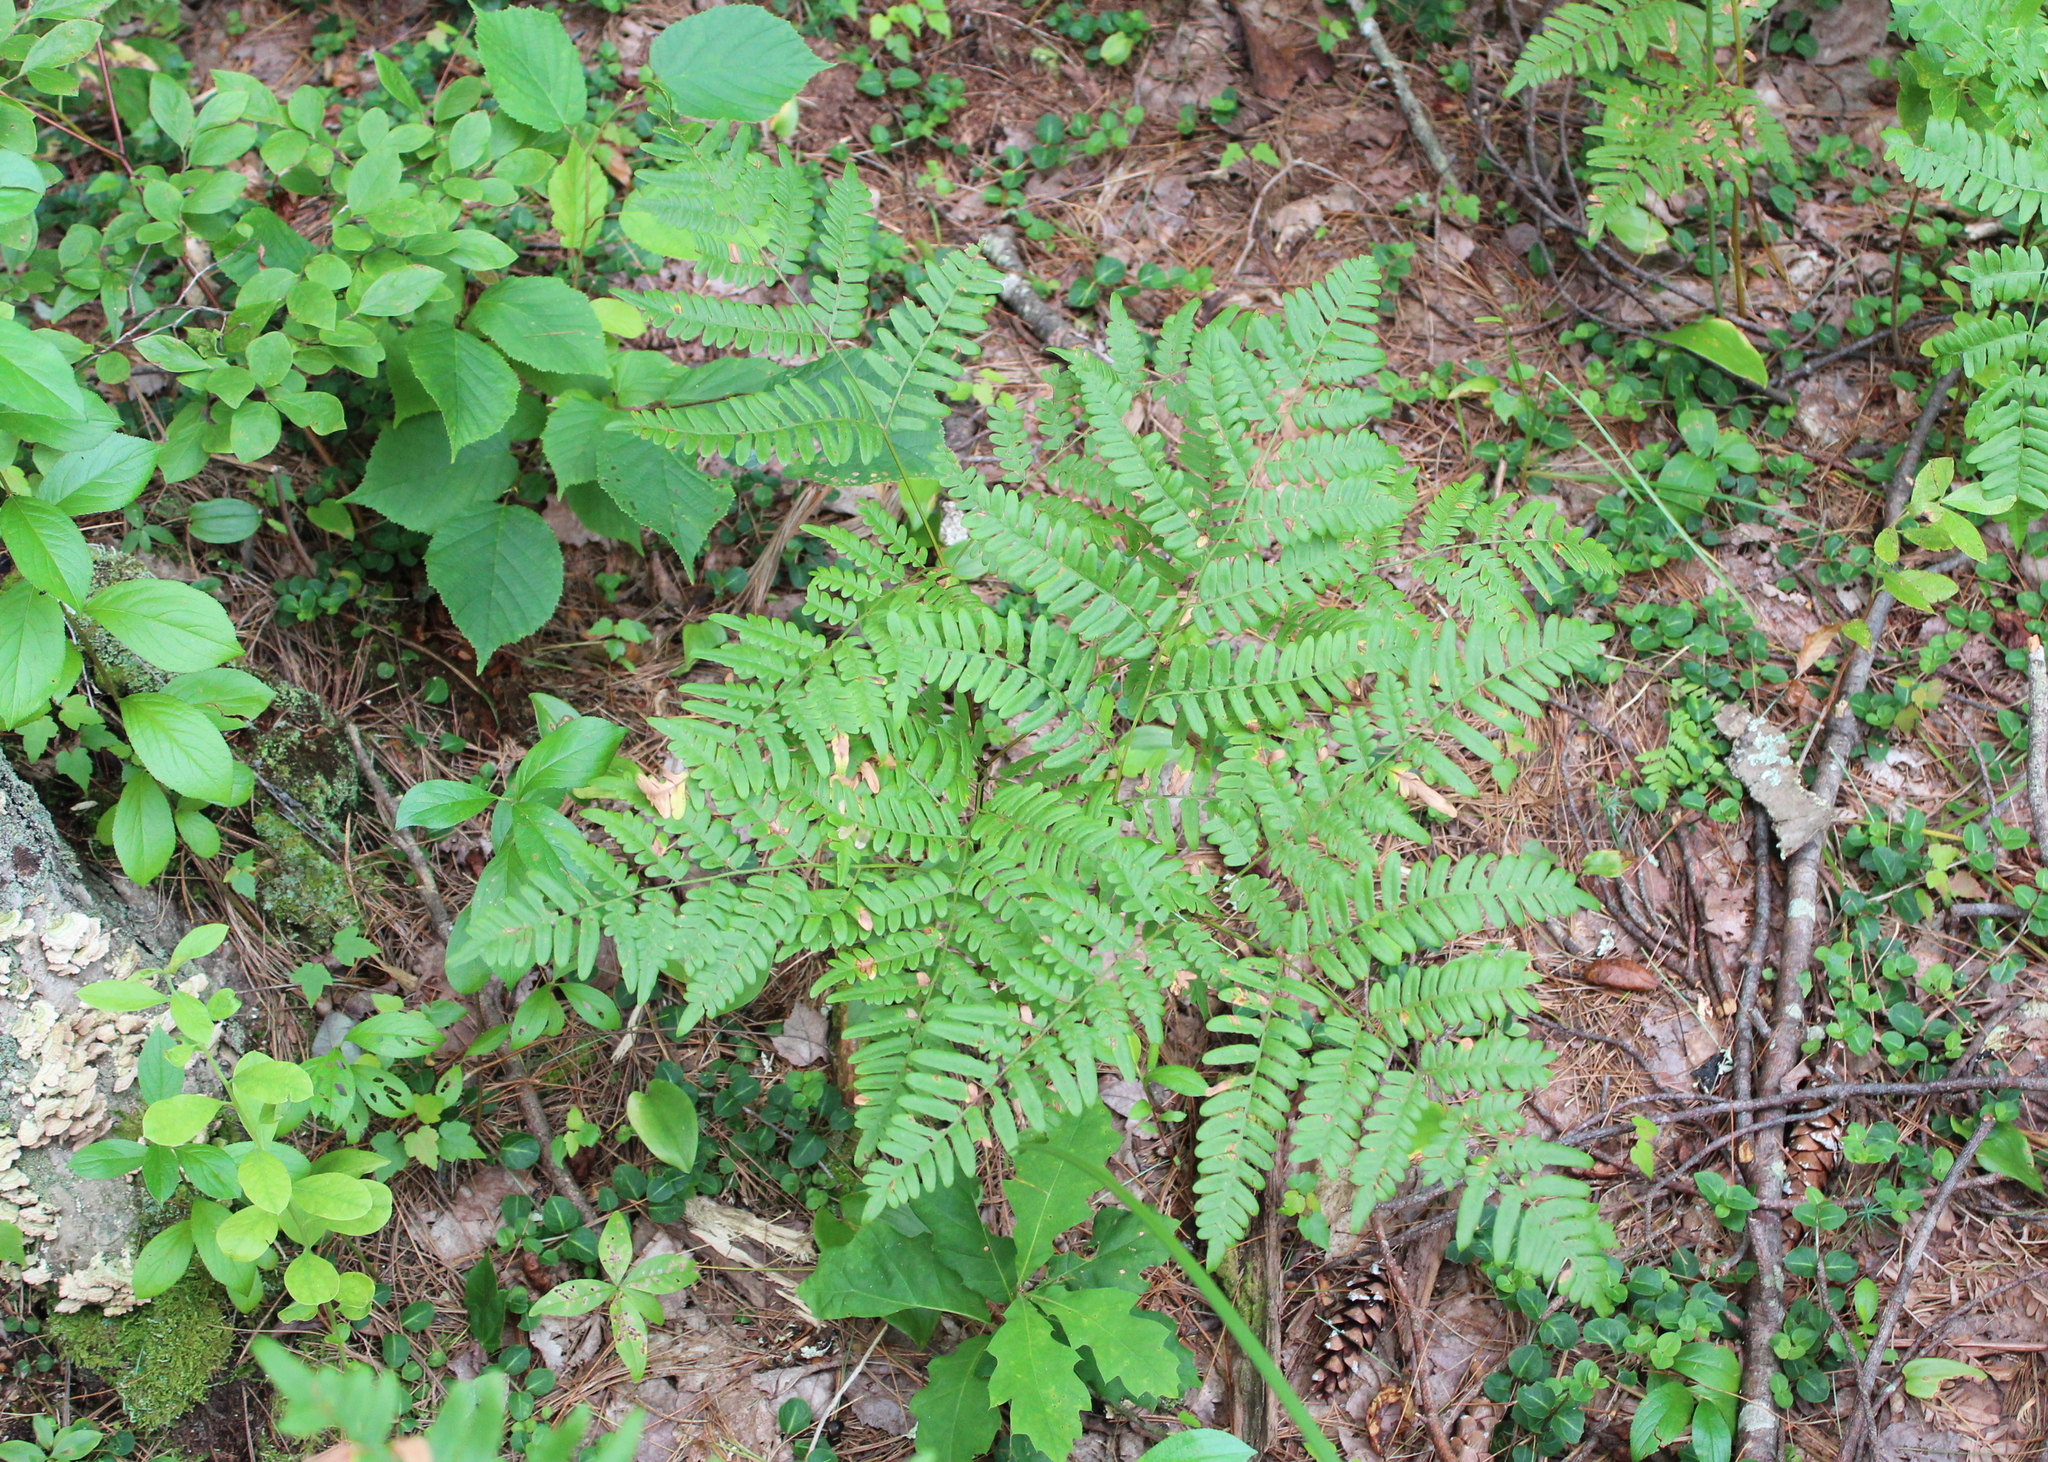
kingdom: Plantae
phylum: Tracheophyta
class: Polypodiopsida
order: Polypodiales
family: Dennstaedtiaceae
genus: Pteridium
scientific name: Pteridium aquilinum
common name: Bracken
